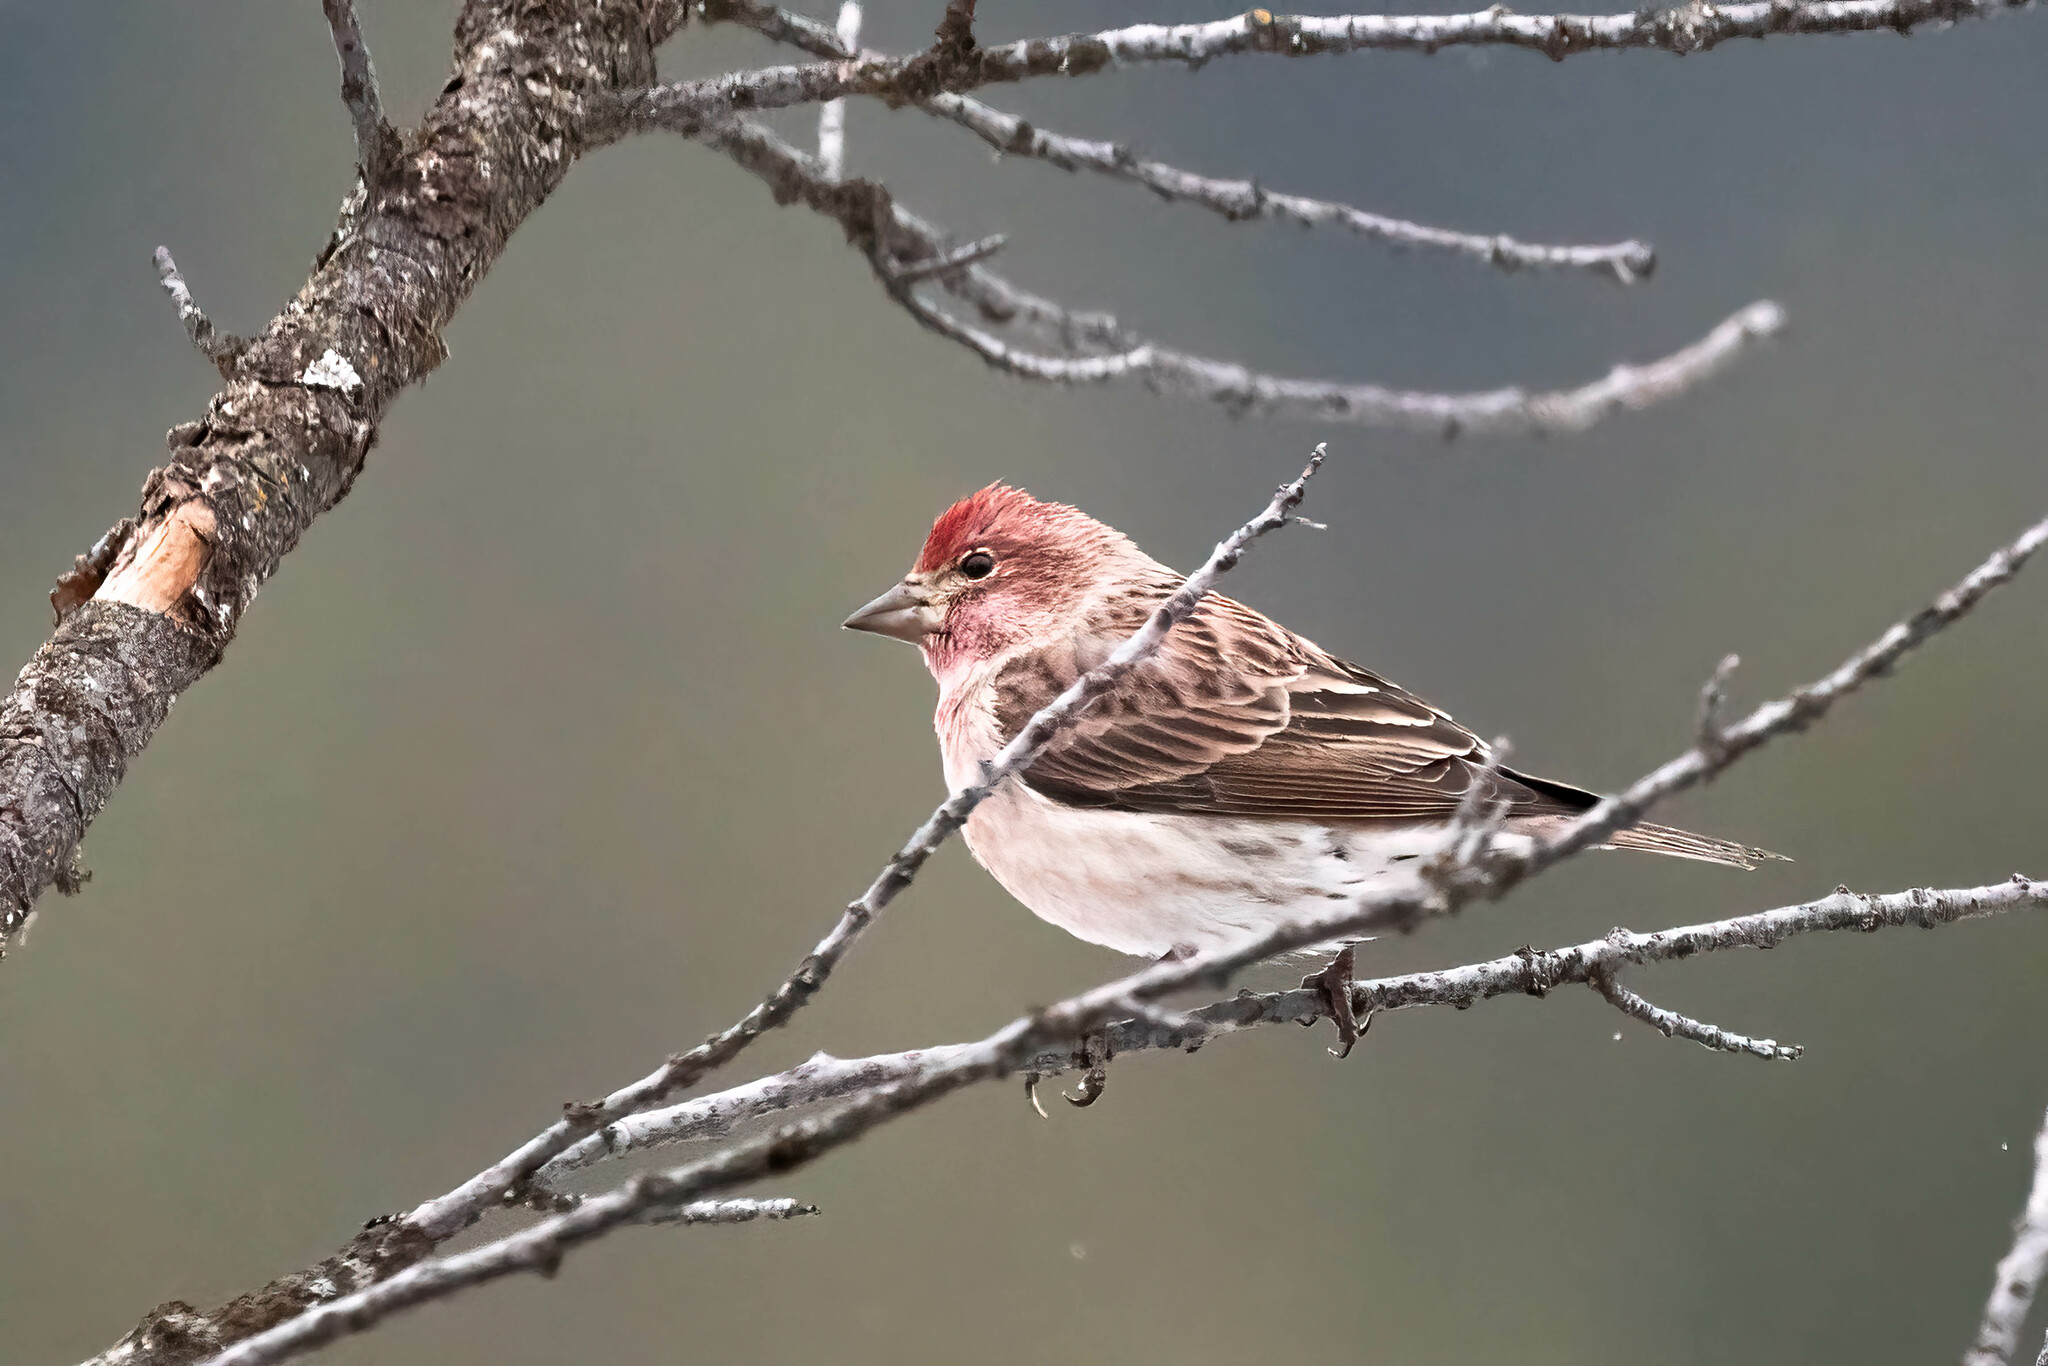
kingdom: Animalia
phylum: Chordata
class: Aves
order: Passeriformes
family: Fringillidae
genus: Haemorhous
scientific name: Haemorhous cassinii
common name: Cassin's finch
